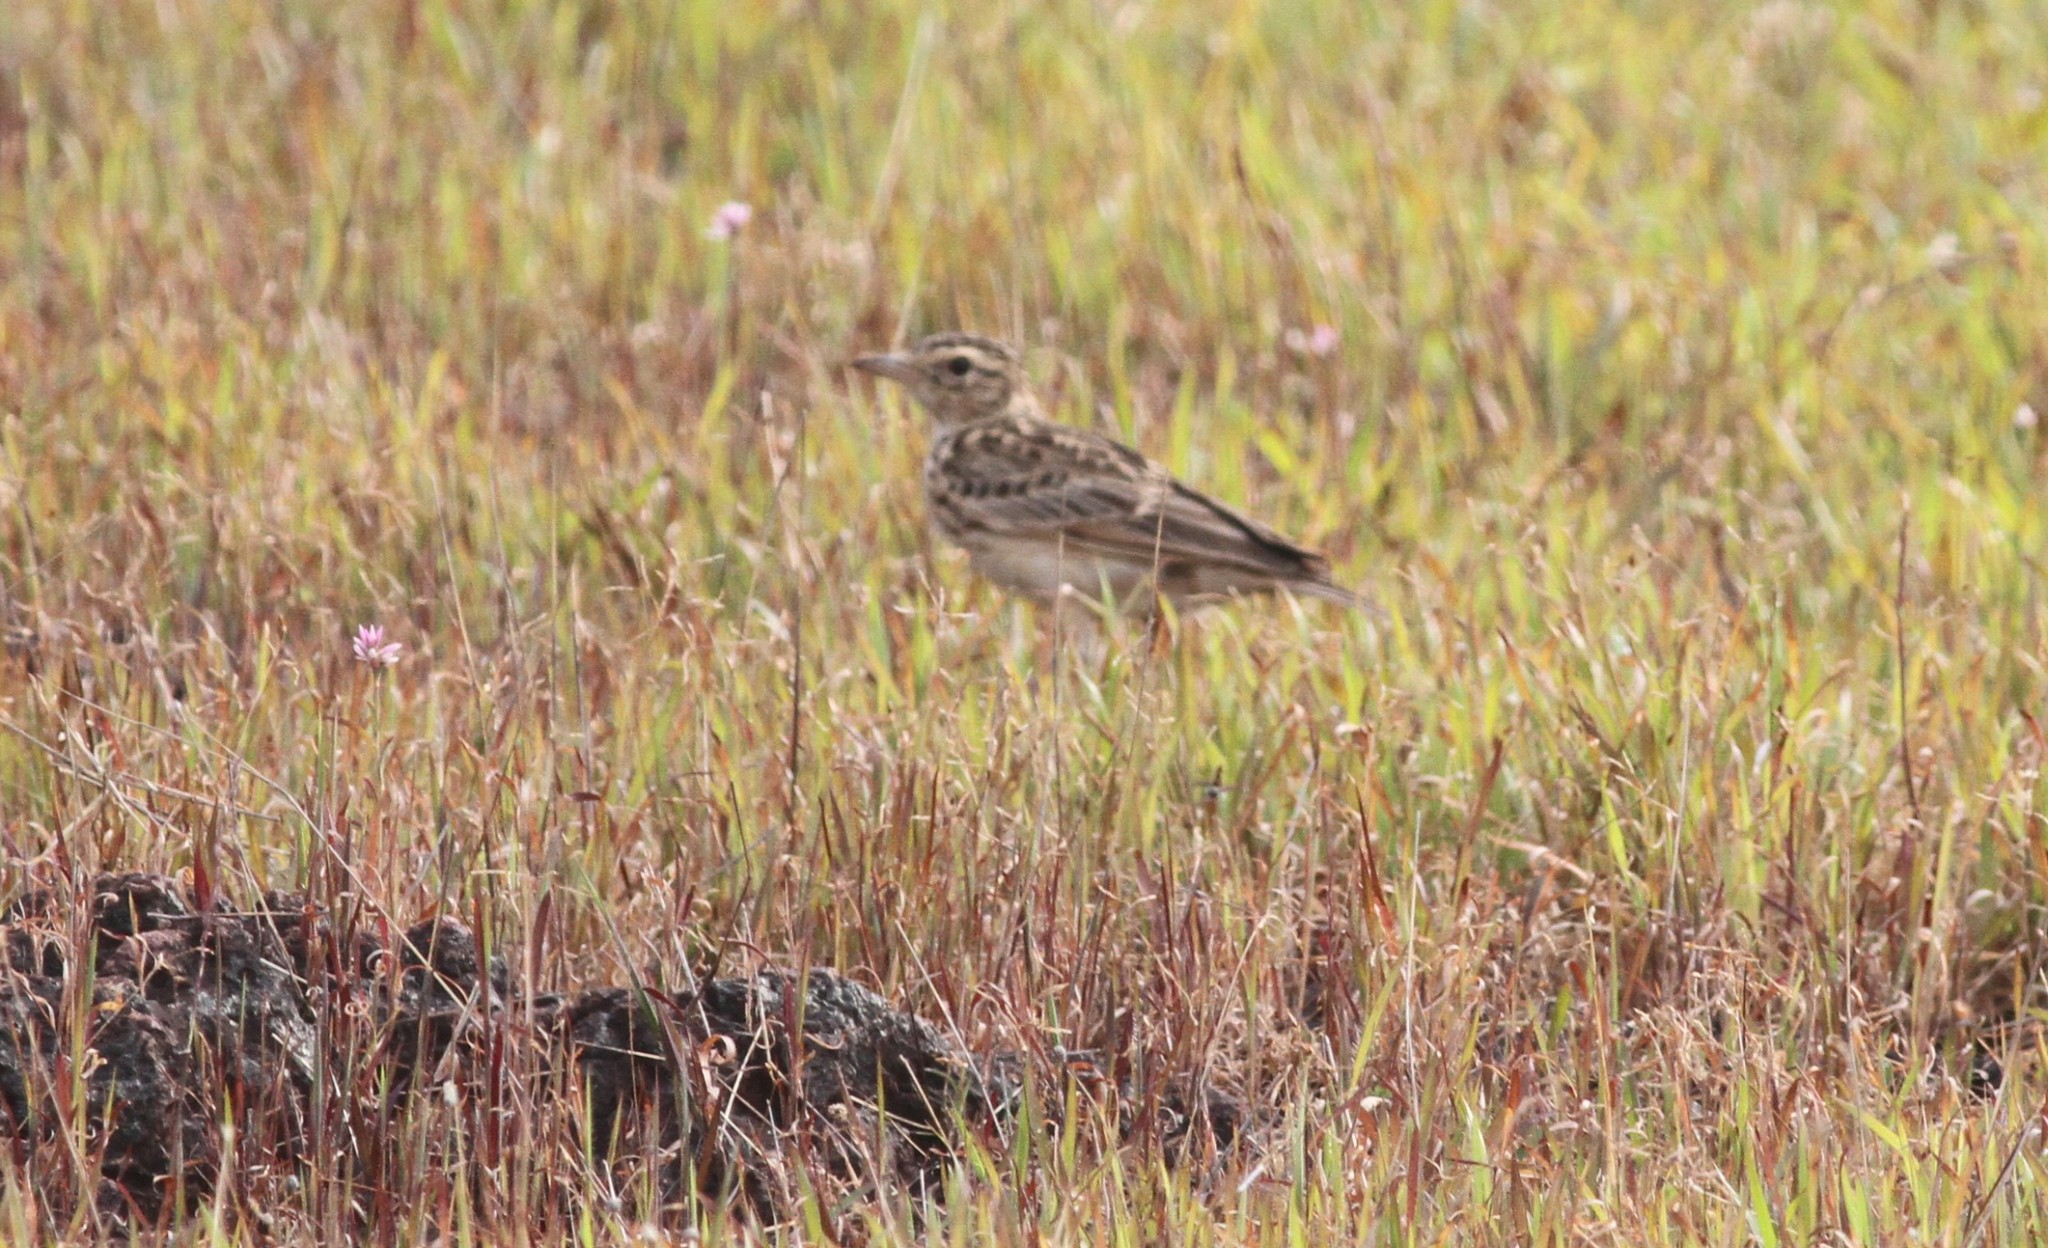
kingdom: Animalia
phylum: Chordata
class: Aves
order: Passeriformes
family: Alaudidae
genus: Mirafra
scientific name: Mirafra affinis
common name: Jerdon's bushlark
